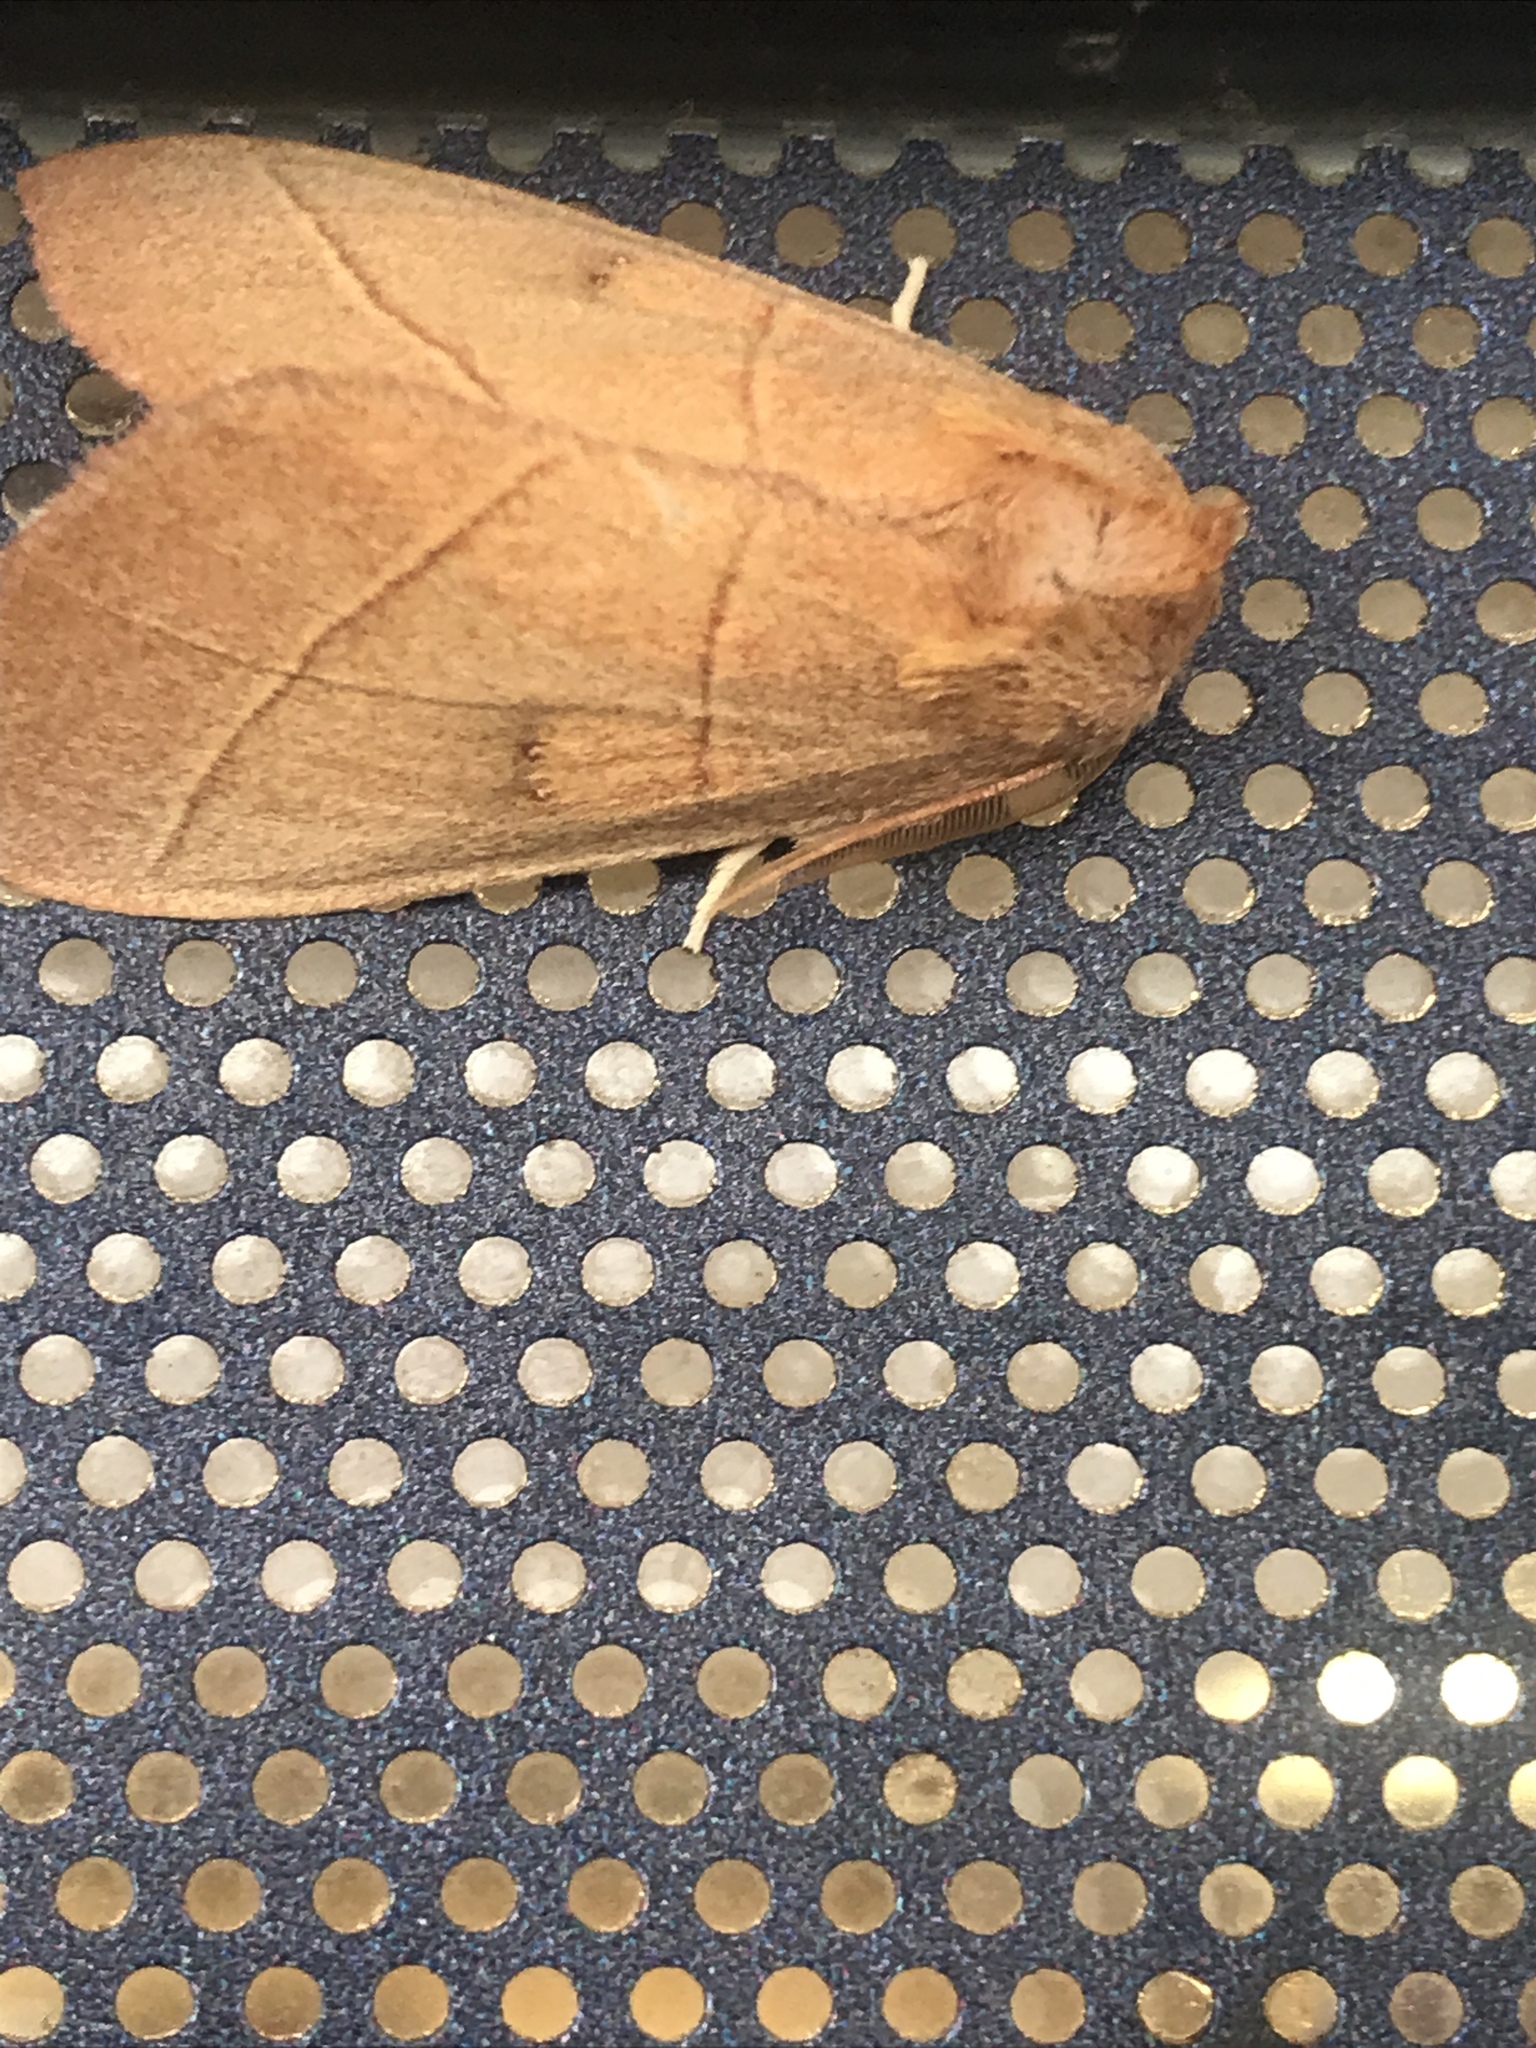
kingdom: Animalia
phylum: Arthropoda
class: Insecta
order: Lepidoptera
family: Notodontidae
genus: Nadata
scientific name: Nadata gibbosa
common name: White-dotted prominent
